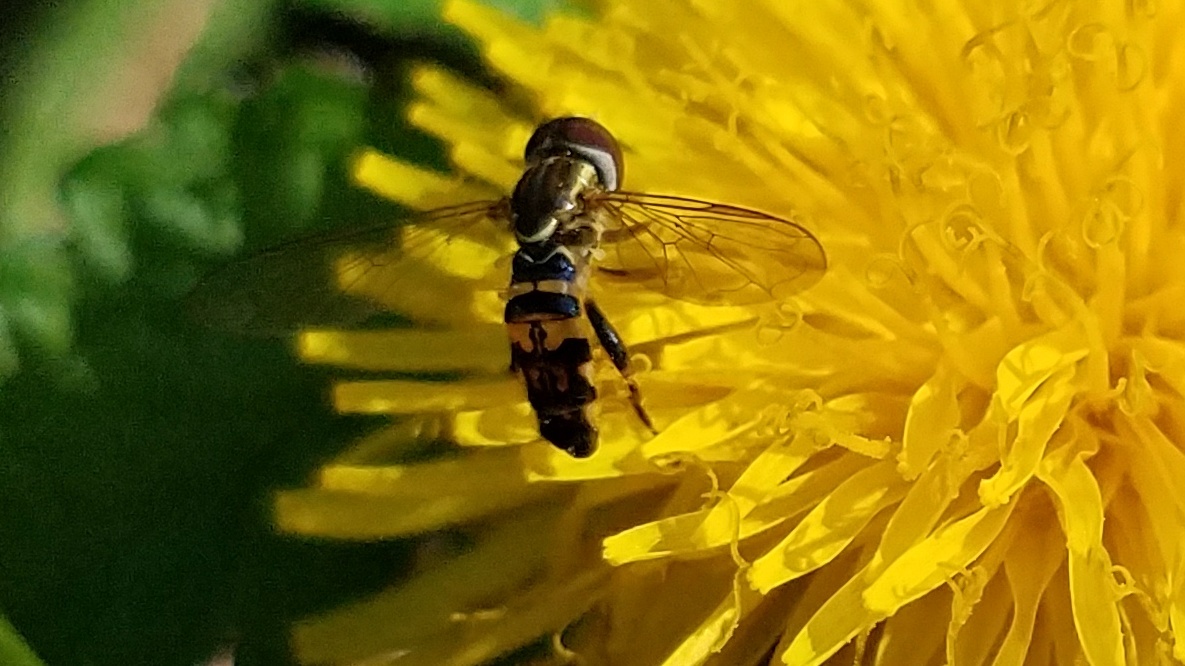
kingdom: Animalia
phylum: Arthropoda
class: Insecta
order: Diptera
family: Syrphidae
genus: Toxomerus
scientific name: Toxomerus geminatus
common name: Eastern calligrapher
